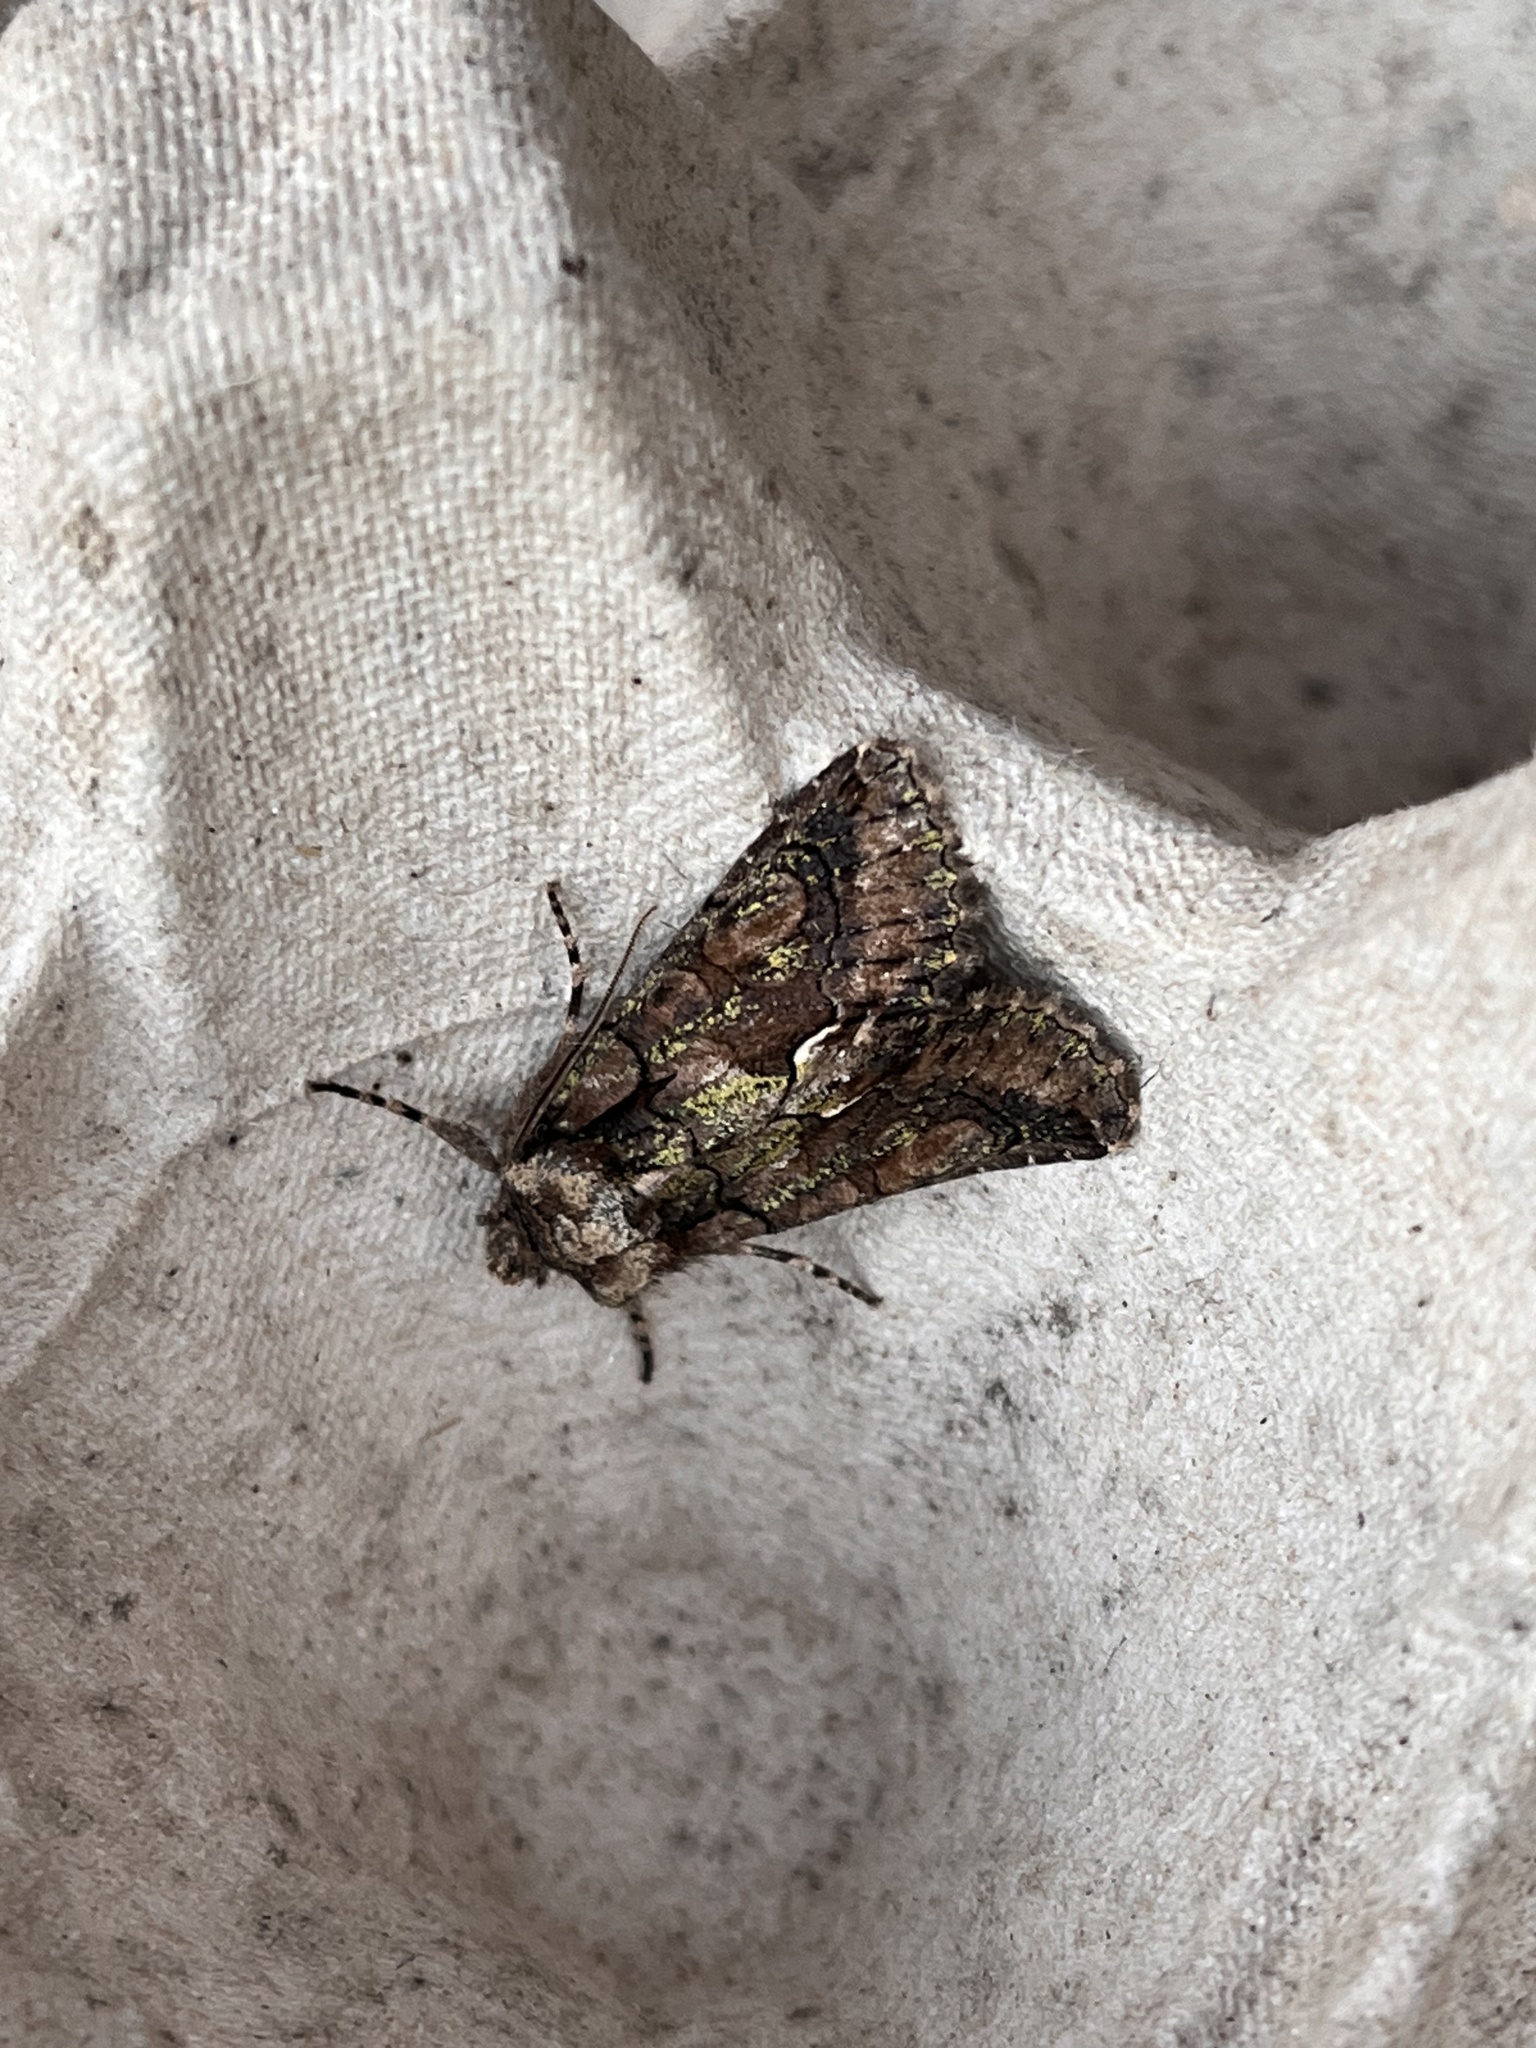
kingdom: Animalia
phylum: Arthropoda
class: Insecta
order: Lepidoptera
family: Noctuidae
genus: Allophyes
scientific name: Allophyes oxyacanthae
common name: Green-brindled crescent
